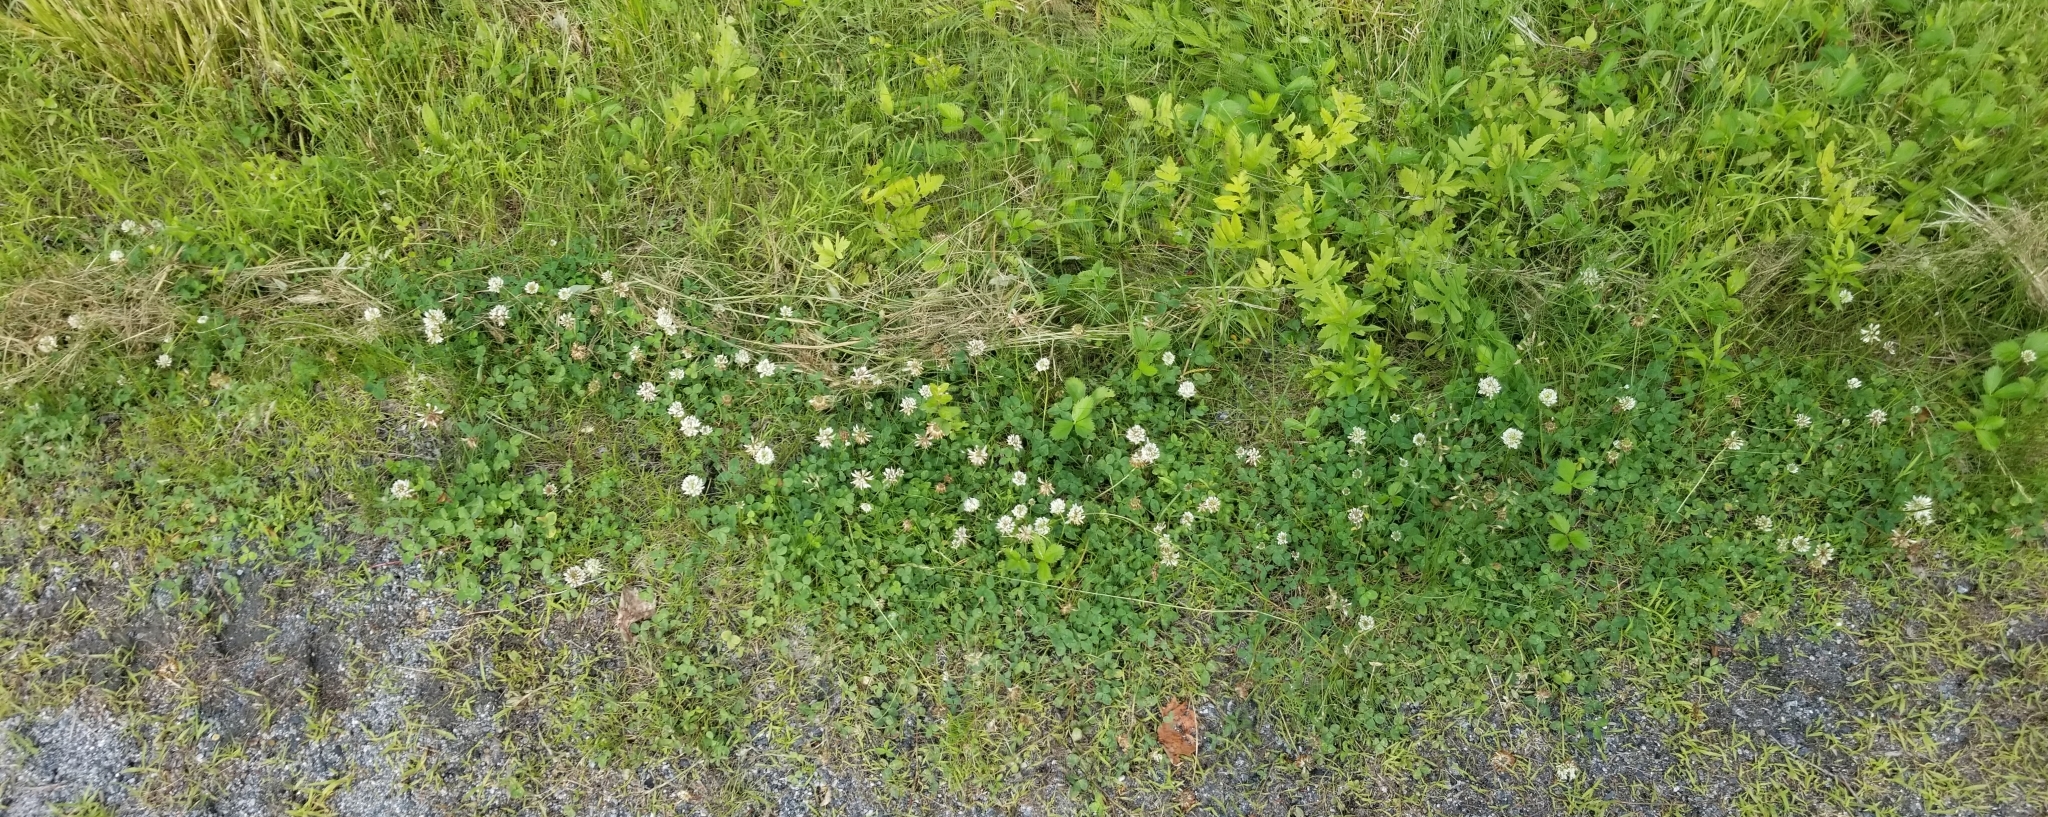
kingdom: Plantae
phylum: Tracheophyta
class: Magnoliopsida
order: Fabales
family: Fabaceae
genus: Trifolium
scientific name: Trifolium repens
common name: White clover
